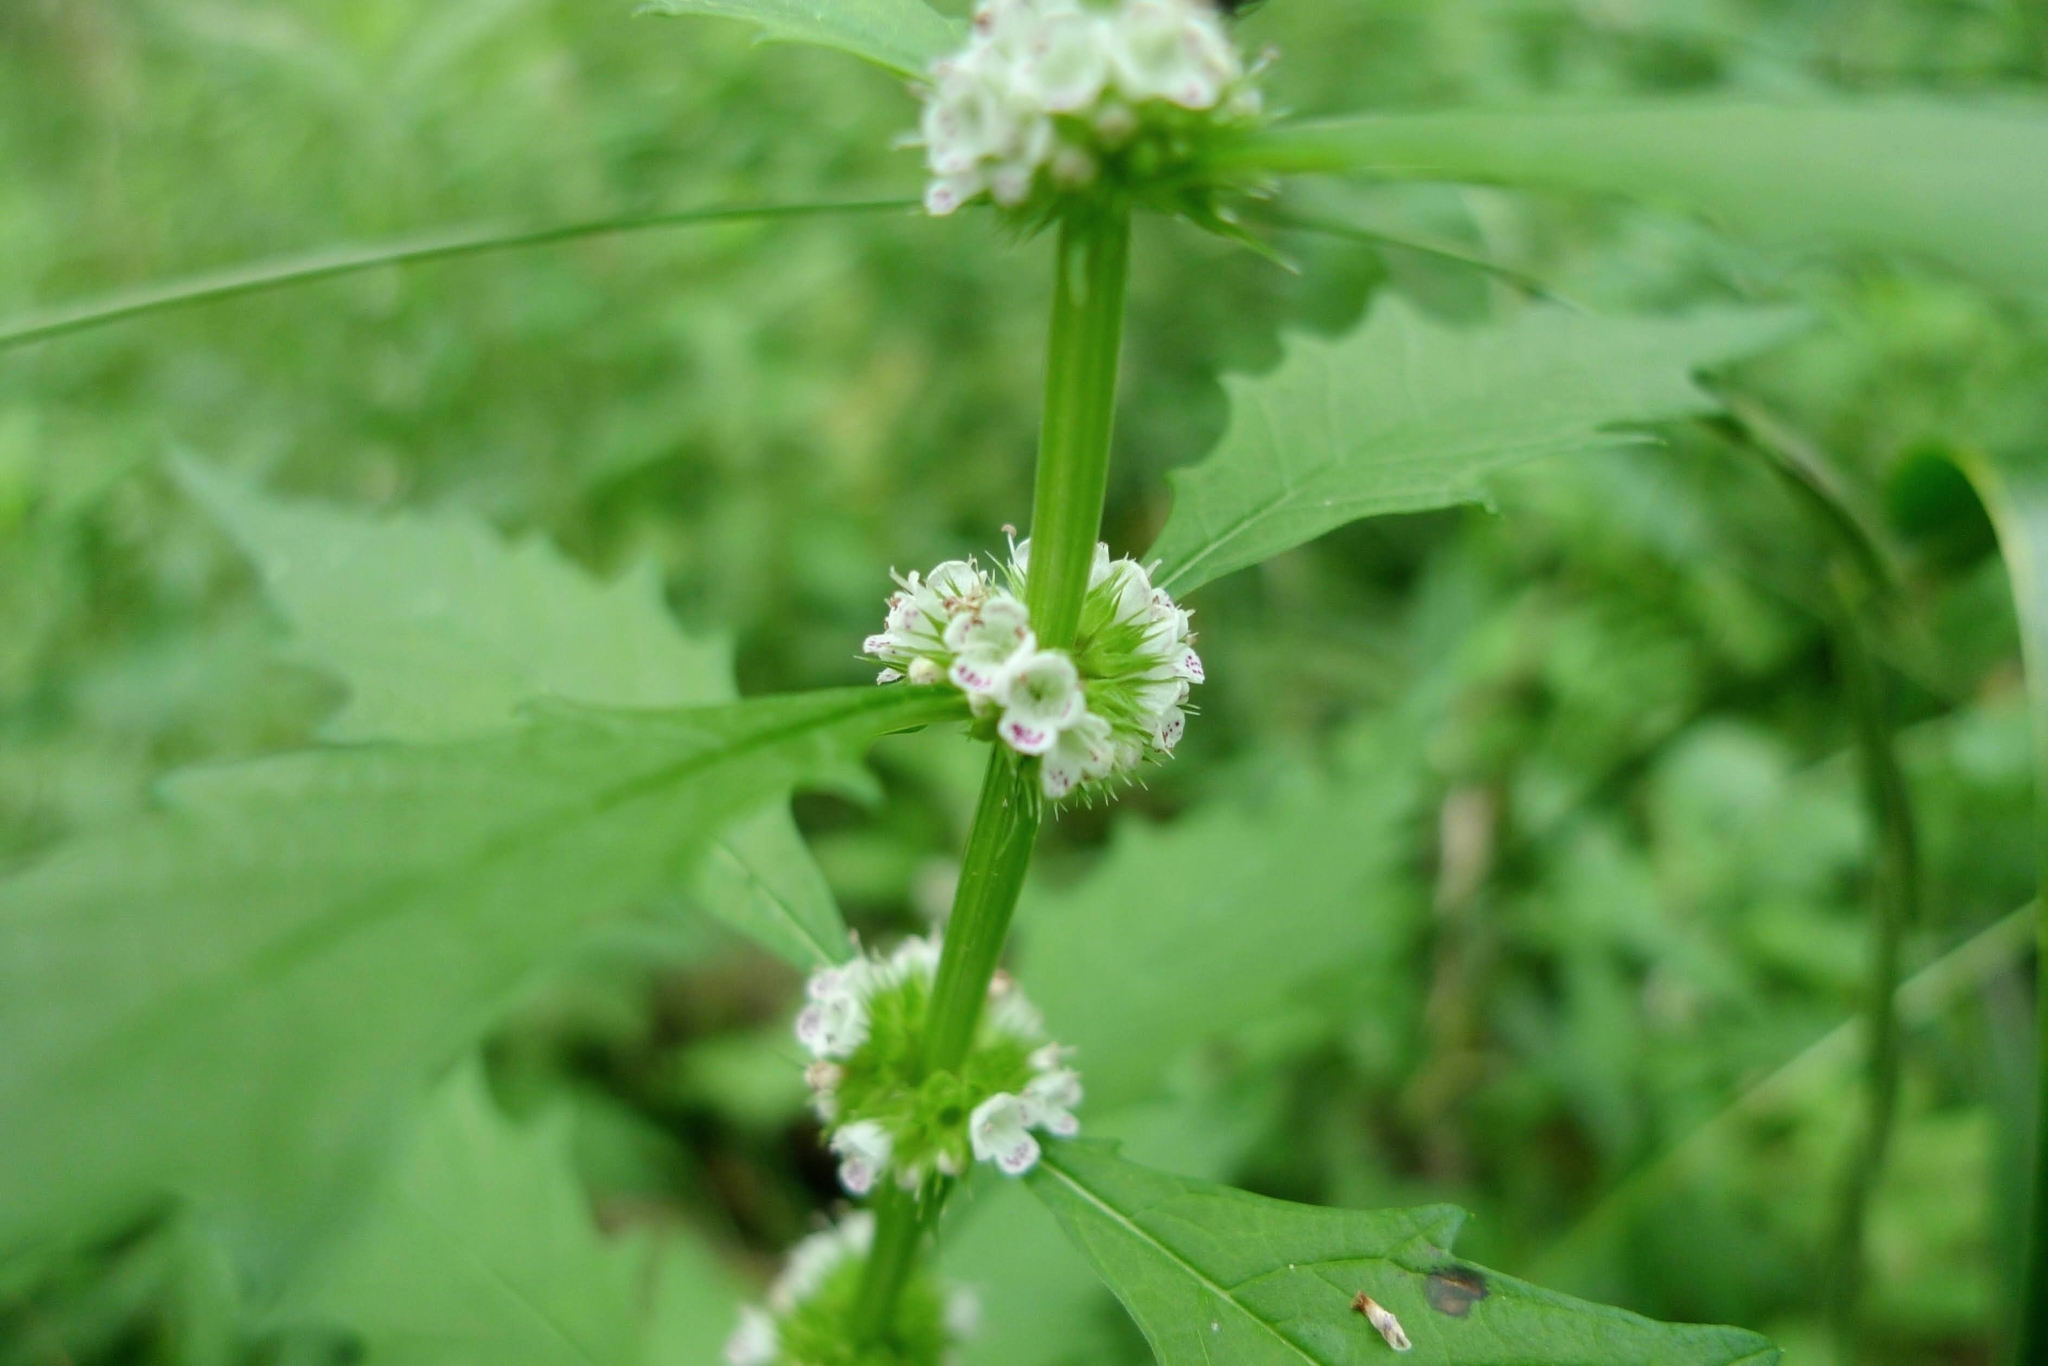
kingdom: Plantae
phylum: Tracheophyta
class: Magnoliopsida
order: Lamiales
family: Lamiaceae
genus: Lycopus
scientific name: Lycopus europaeus
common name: European bugleweed
